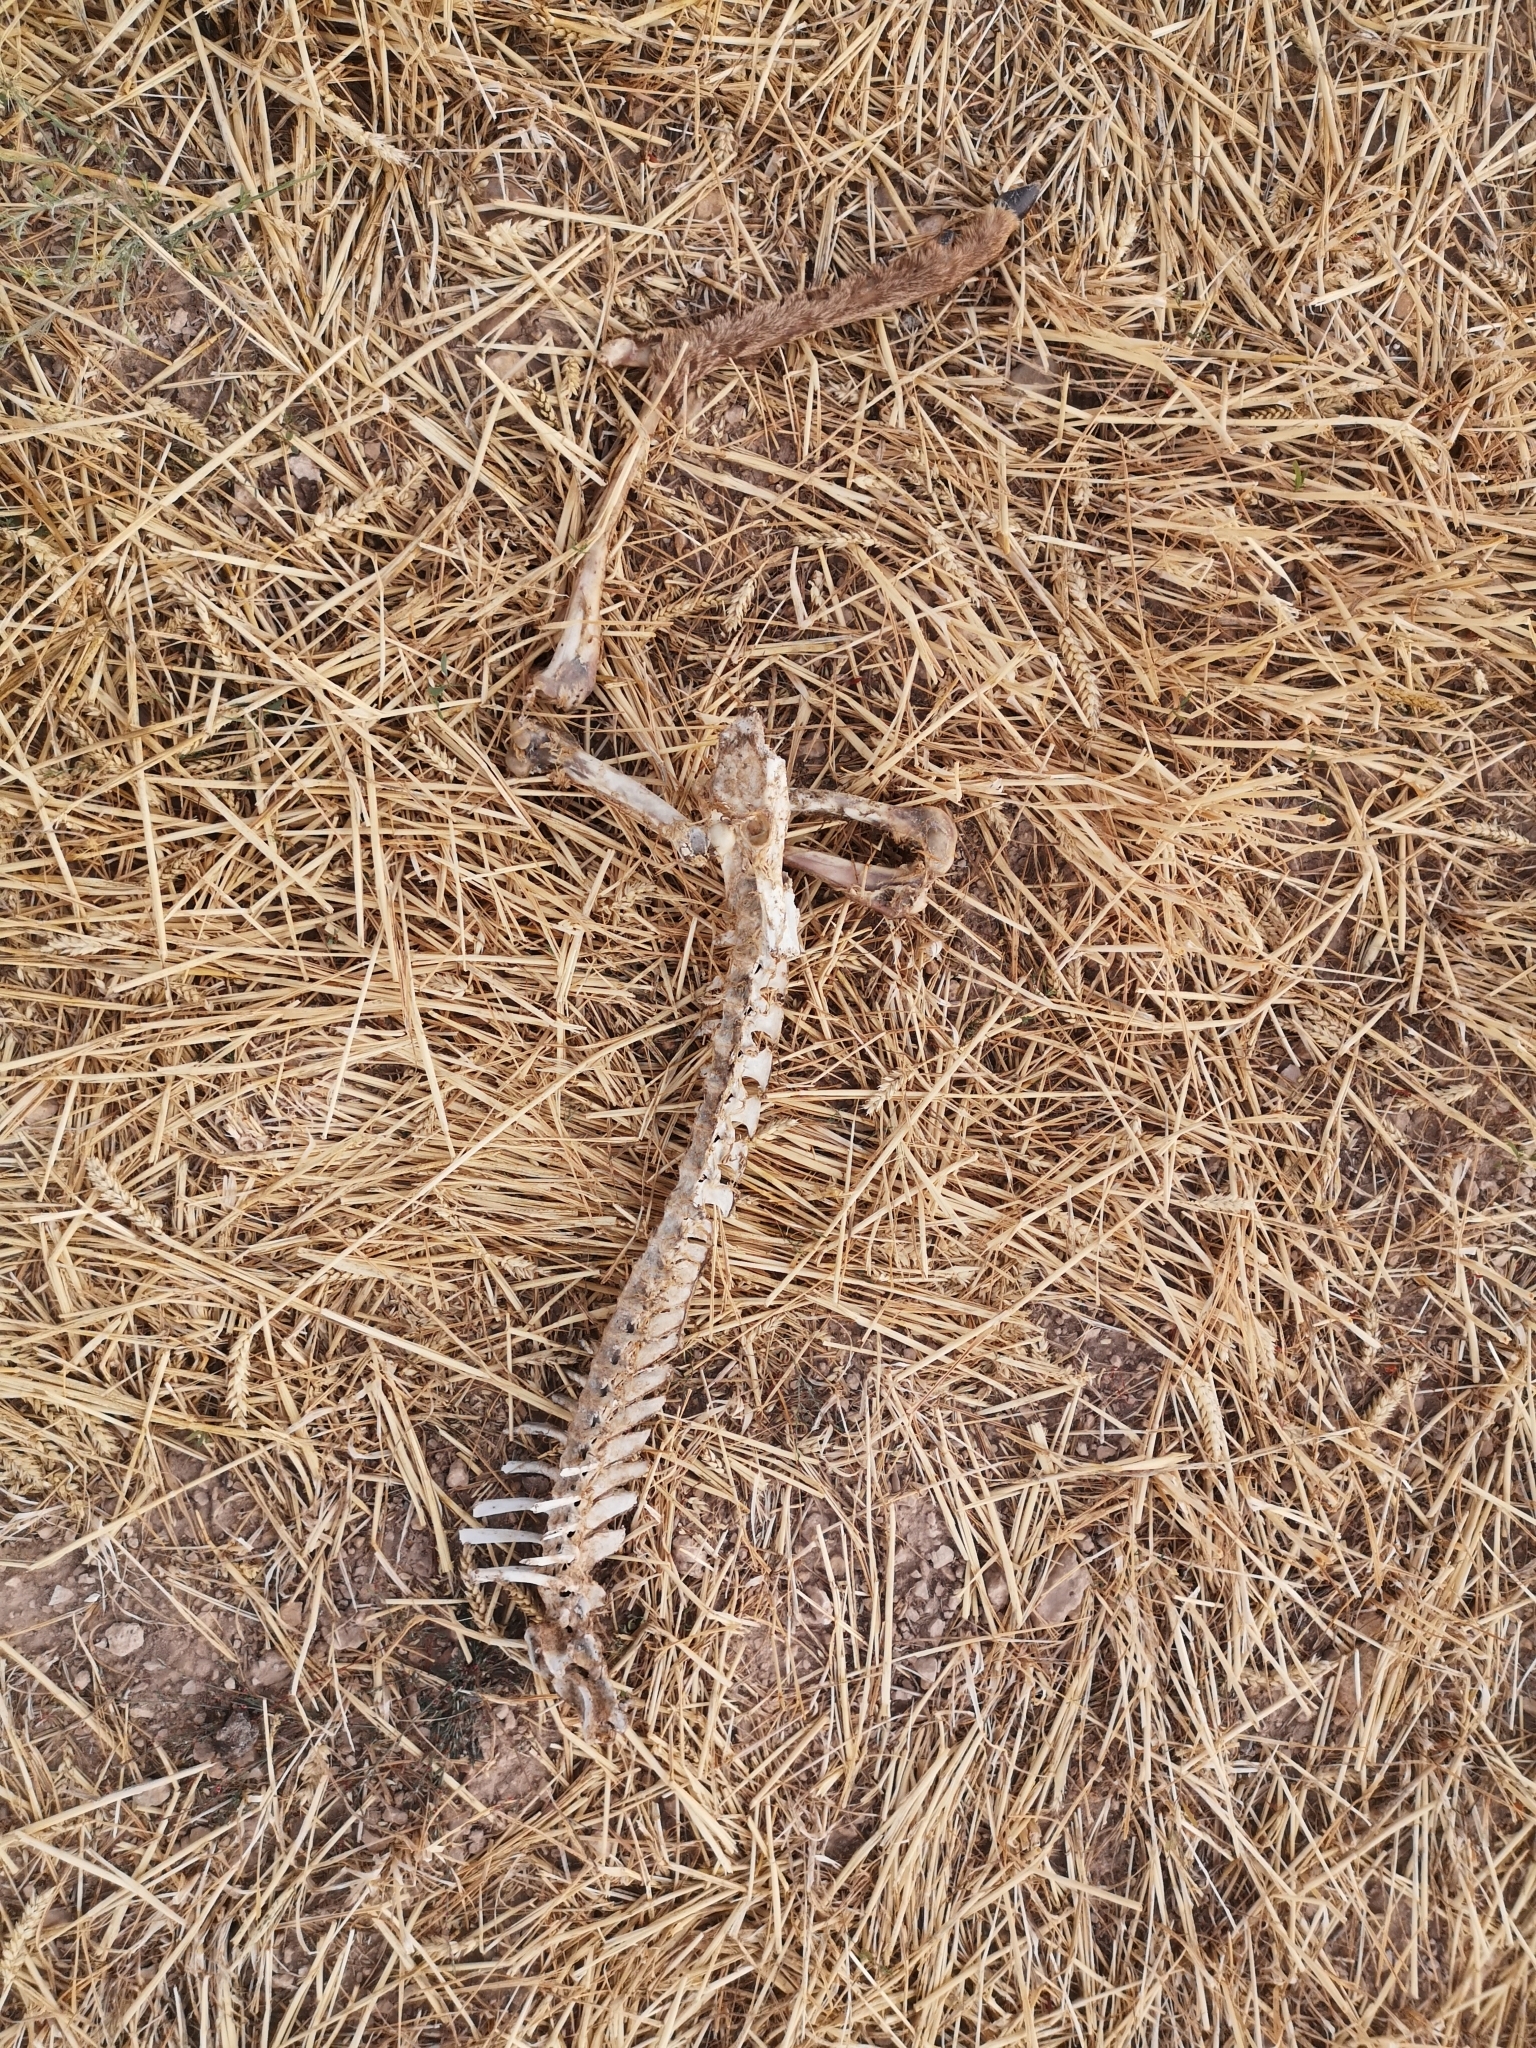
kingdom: Animalia
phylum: Chordata
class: Mammalia
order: Artiodactyla
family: Cervidae
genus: Capreolus
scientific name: Capreolus capreolus
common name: Western roe deer
